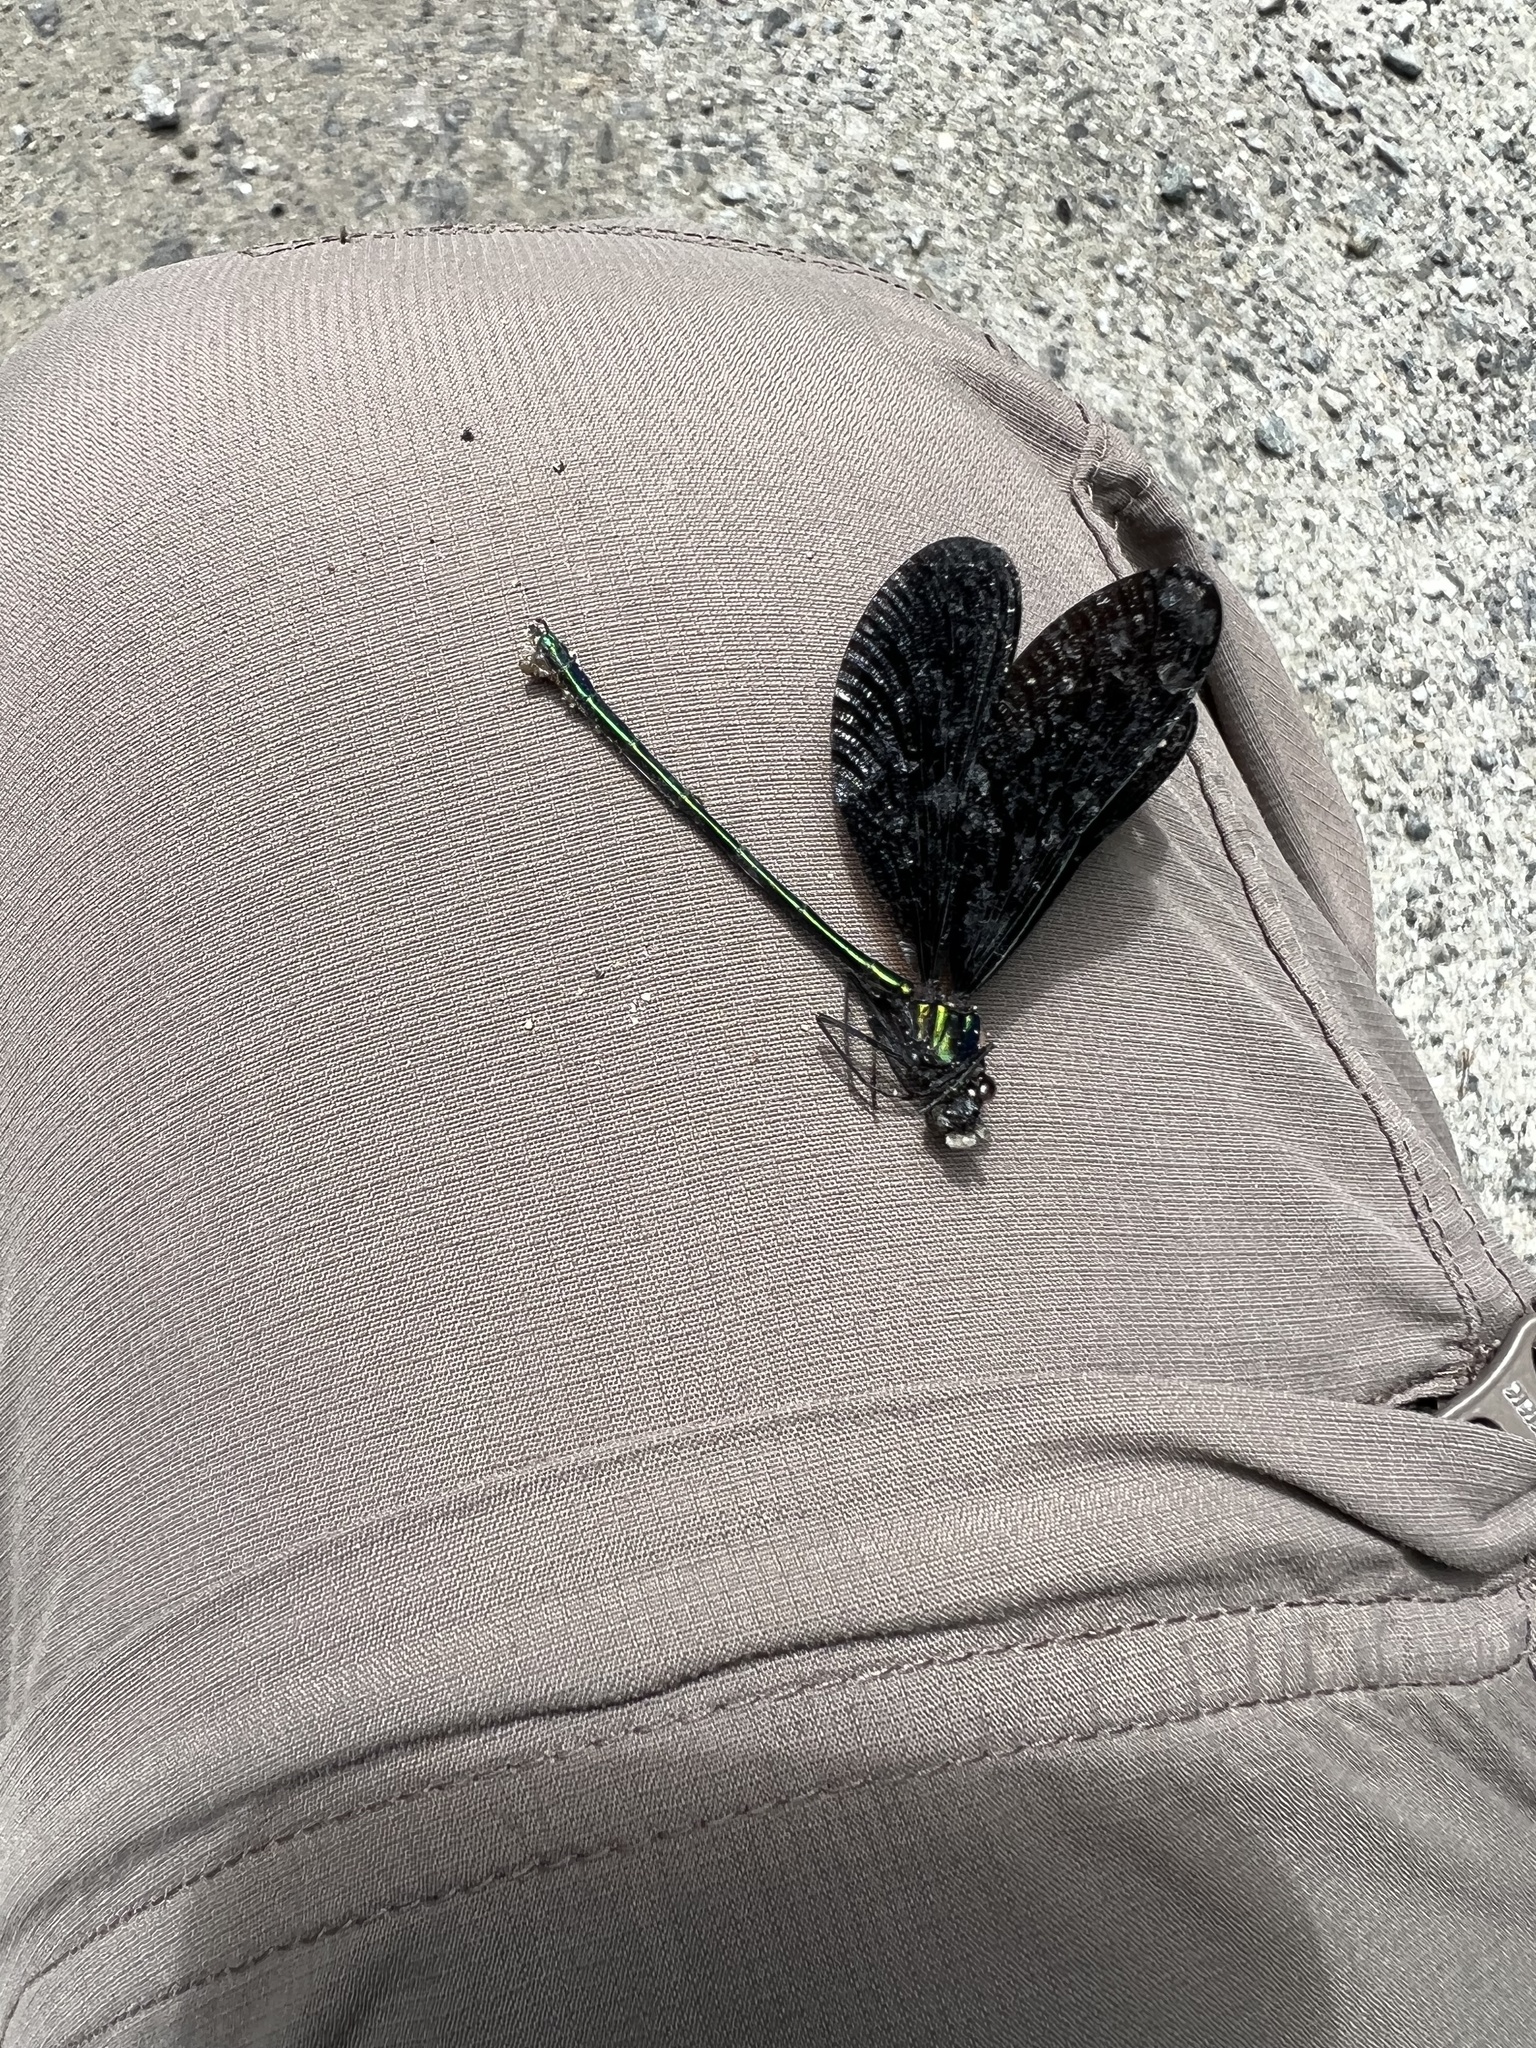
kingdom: Animalia
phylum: Arthropoda
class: Insecta
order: Odonata
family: Calopterygidae
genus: Calopteryx
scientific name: Calopteryx maculata
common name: Ebony jewelwing
